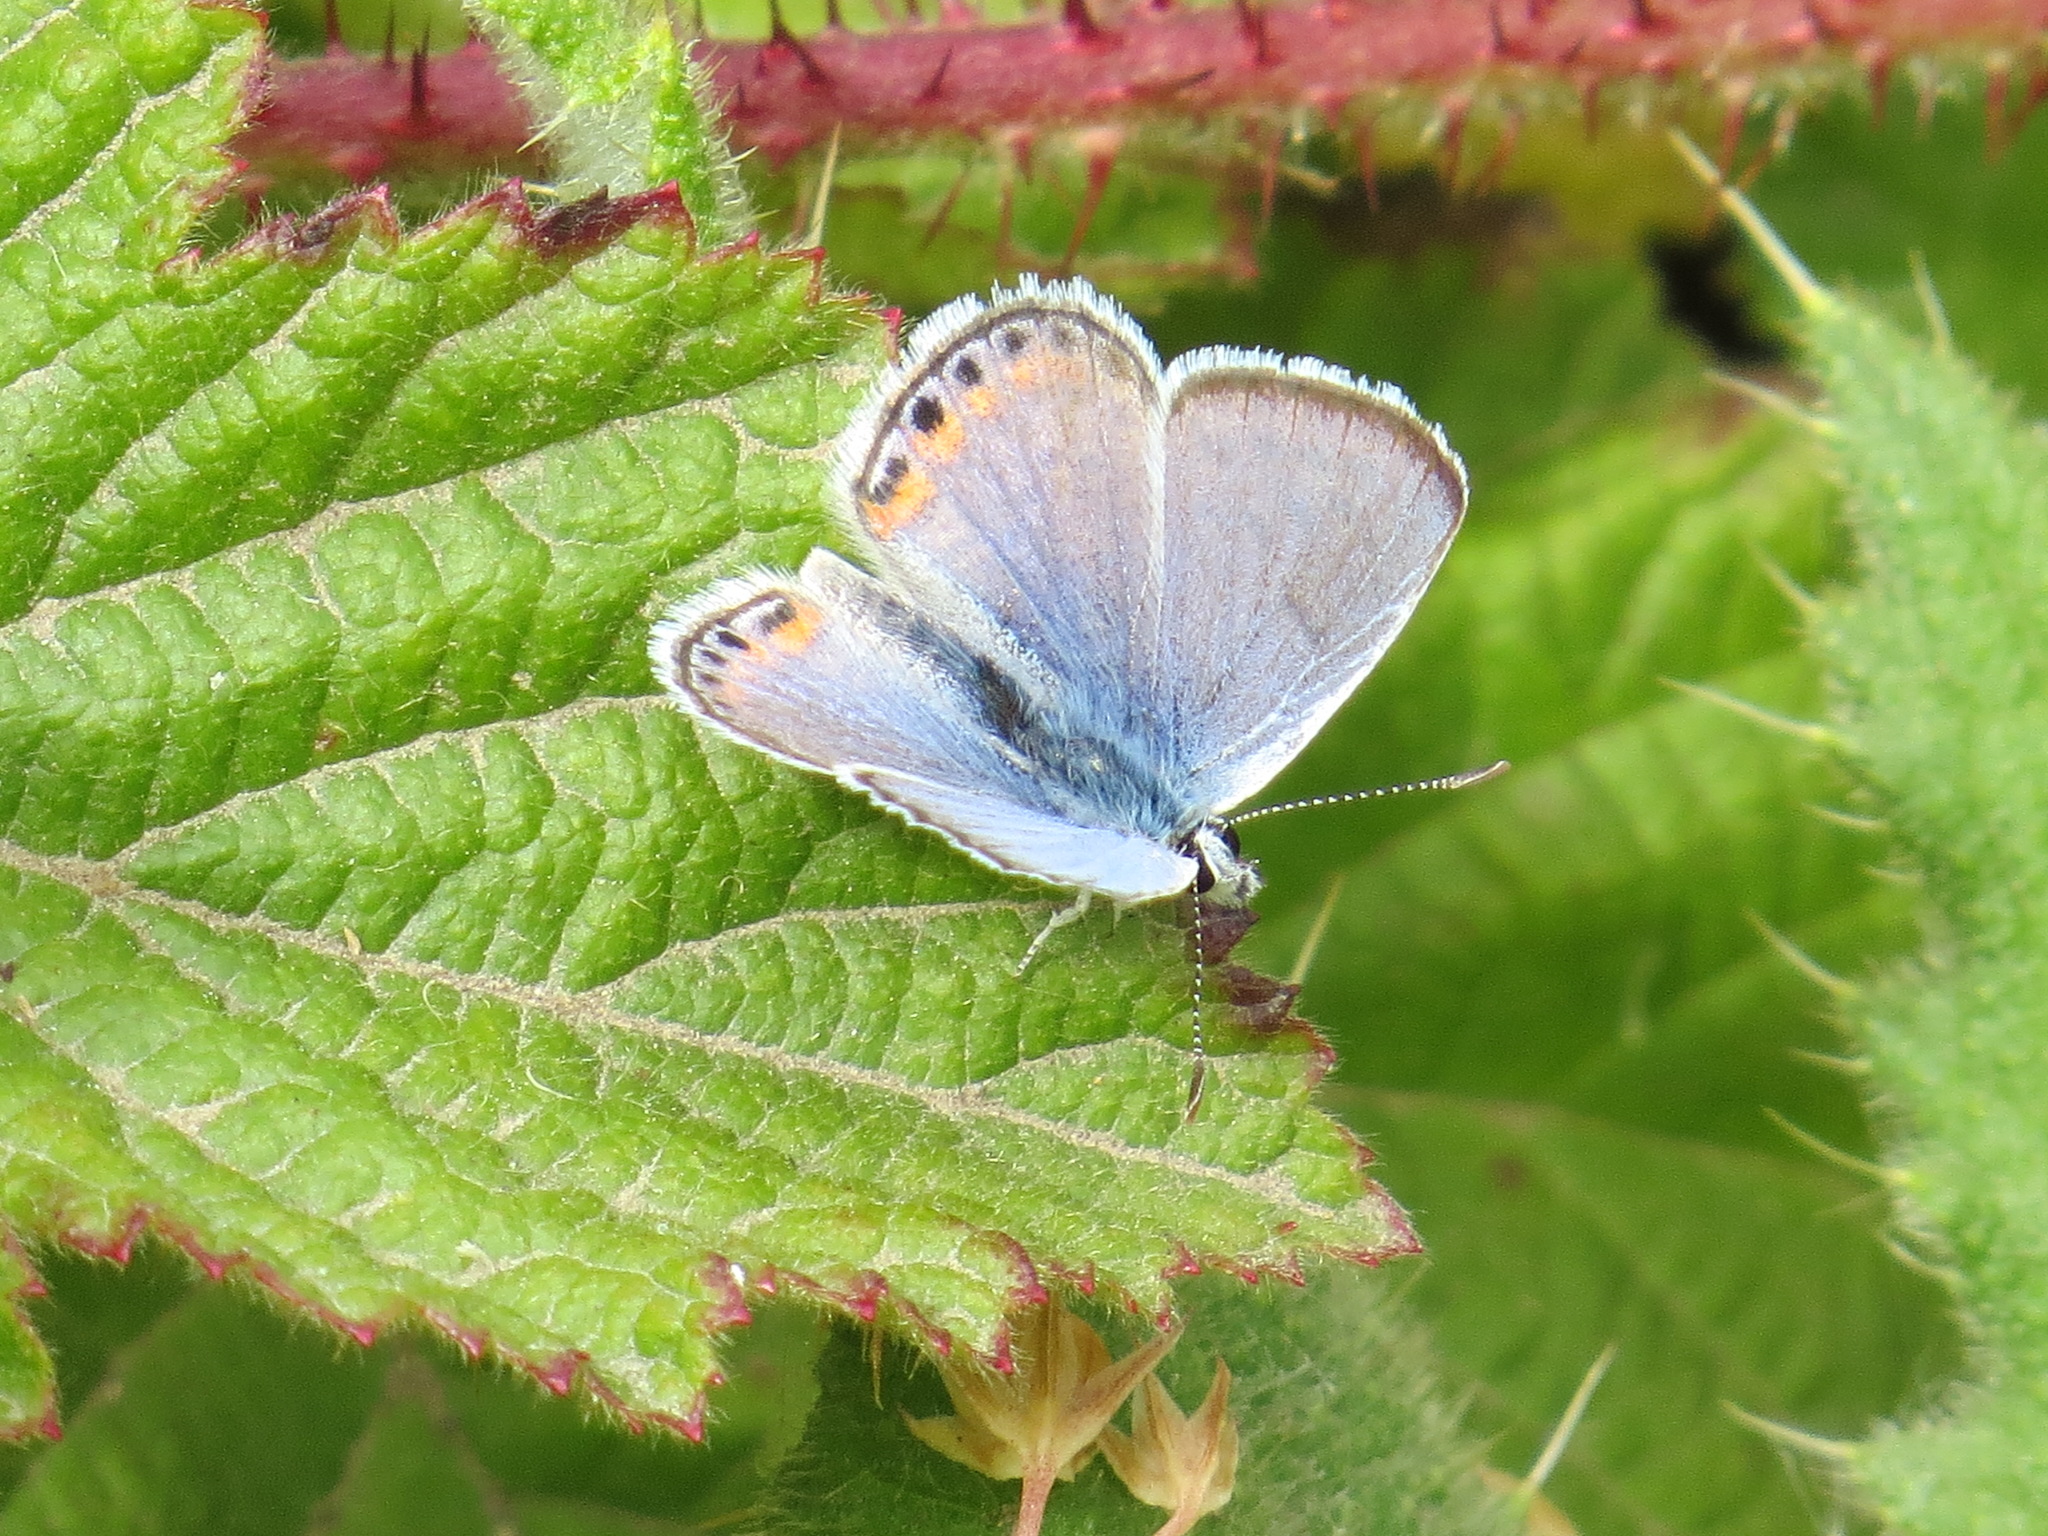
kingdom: Animalia
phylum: Arthropoda
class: Insecta
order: Lepidoptera
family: Lycaenidae
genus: Icaricia
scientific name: Icaricia acmon
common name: Acmon blue
